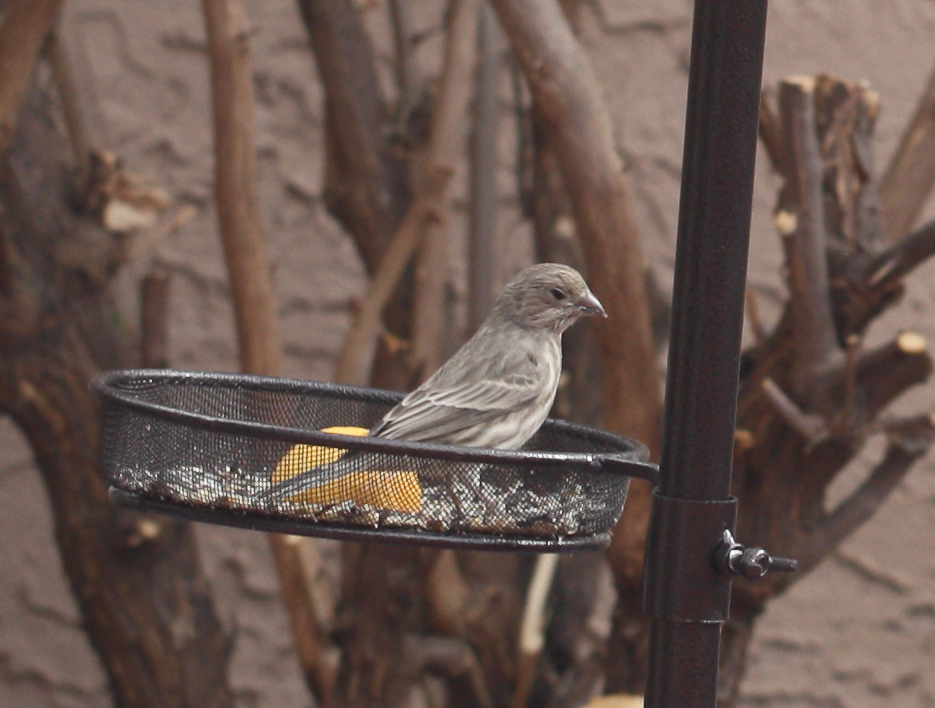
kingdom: Animalia
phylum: Chordata
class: Aves
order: Passeriformes
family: Fringillidae
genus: Haemorhous
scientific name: Haemorhous mexicanus
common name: House finch
